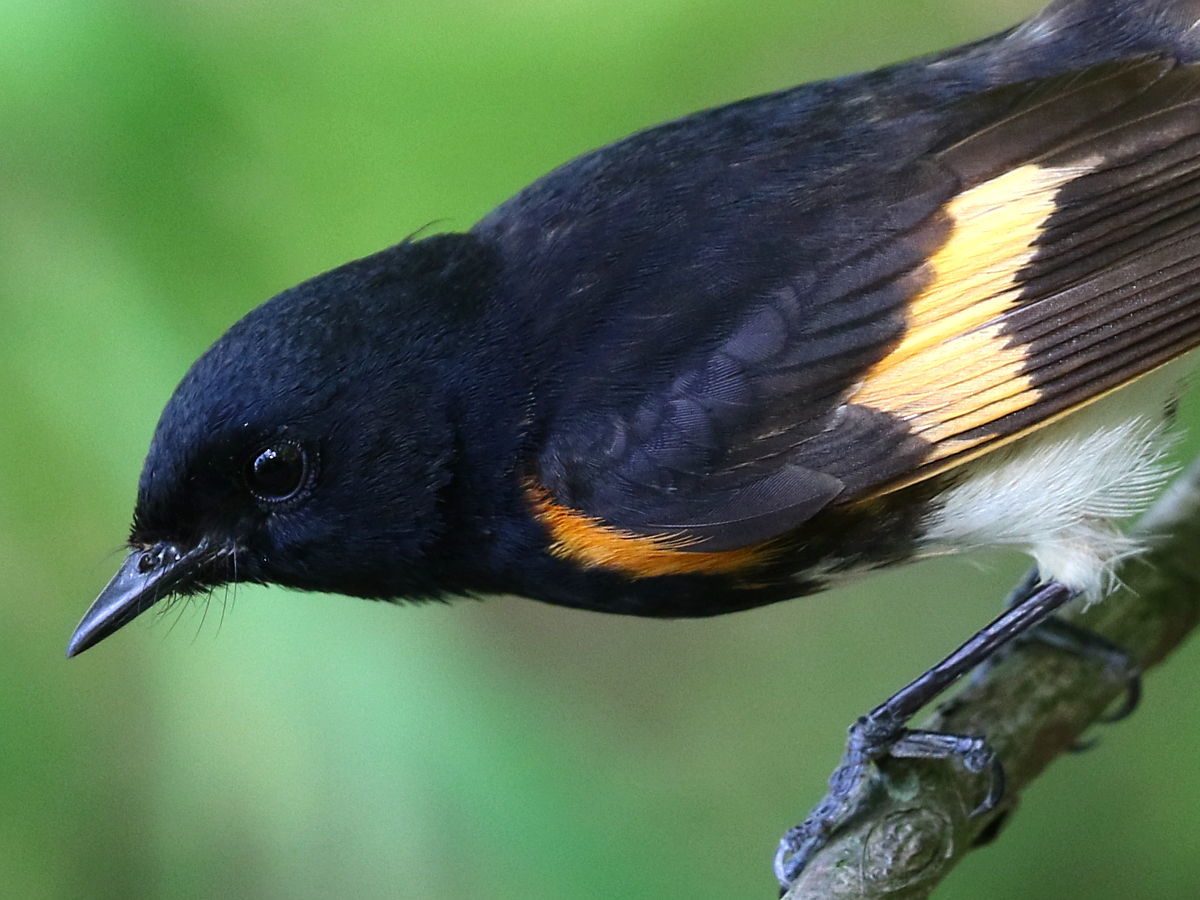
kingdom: Animalia
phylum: Chordata
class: Aves
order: Passeriformes
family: Parulidae
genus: Setophaga
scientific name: Setophaga ruticilla
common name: American redstart
